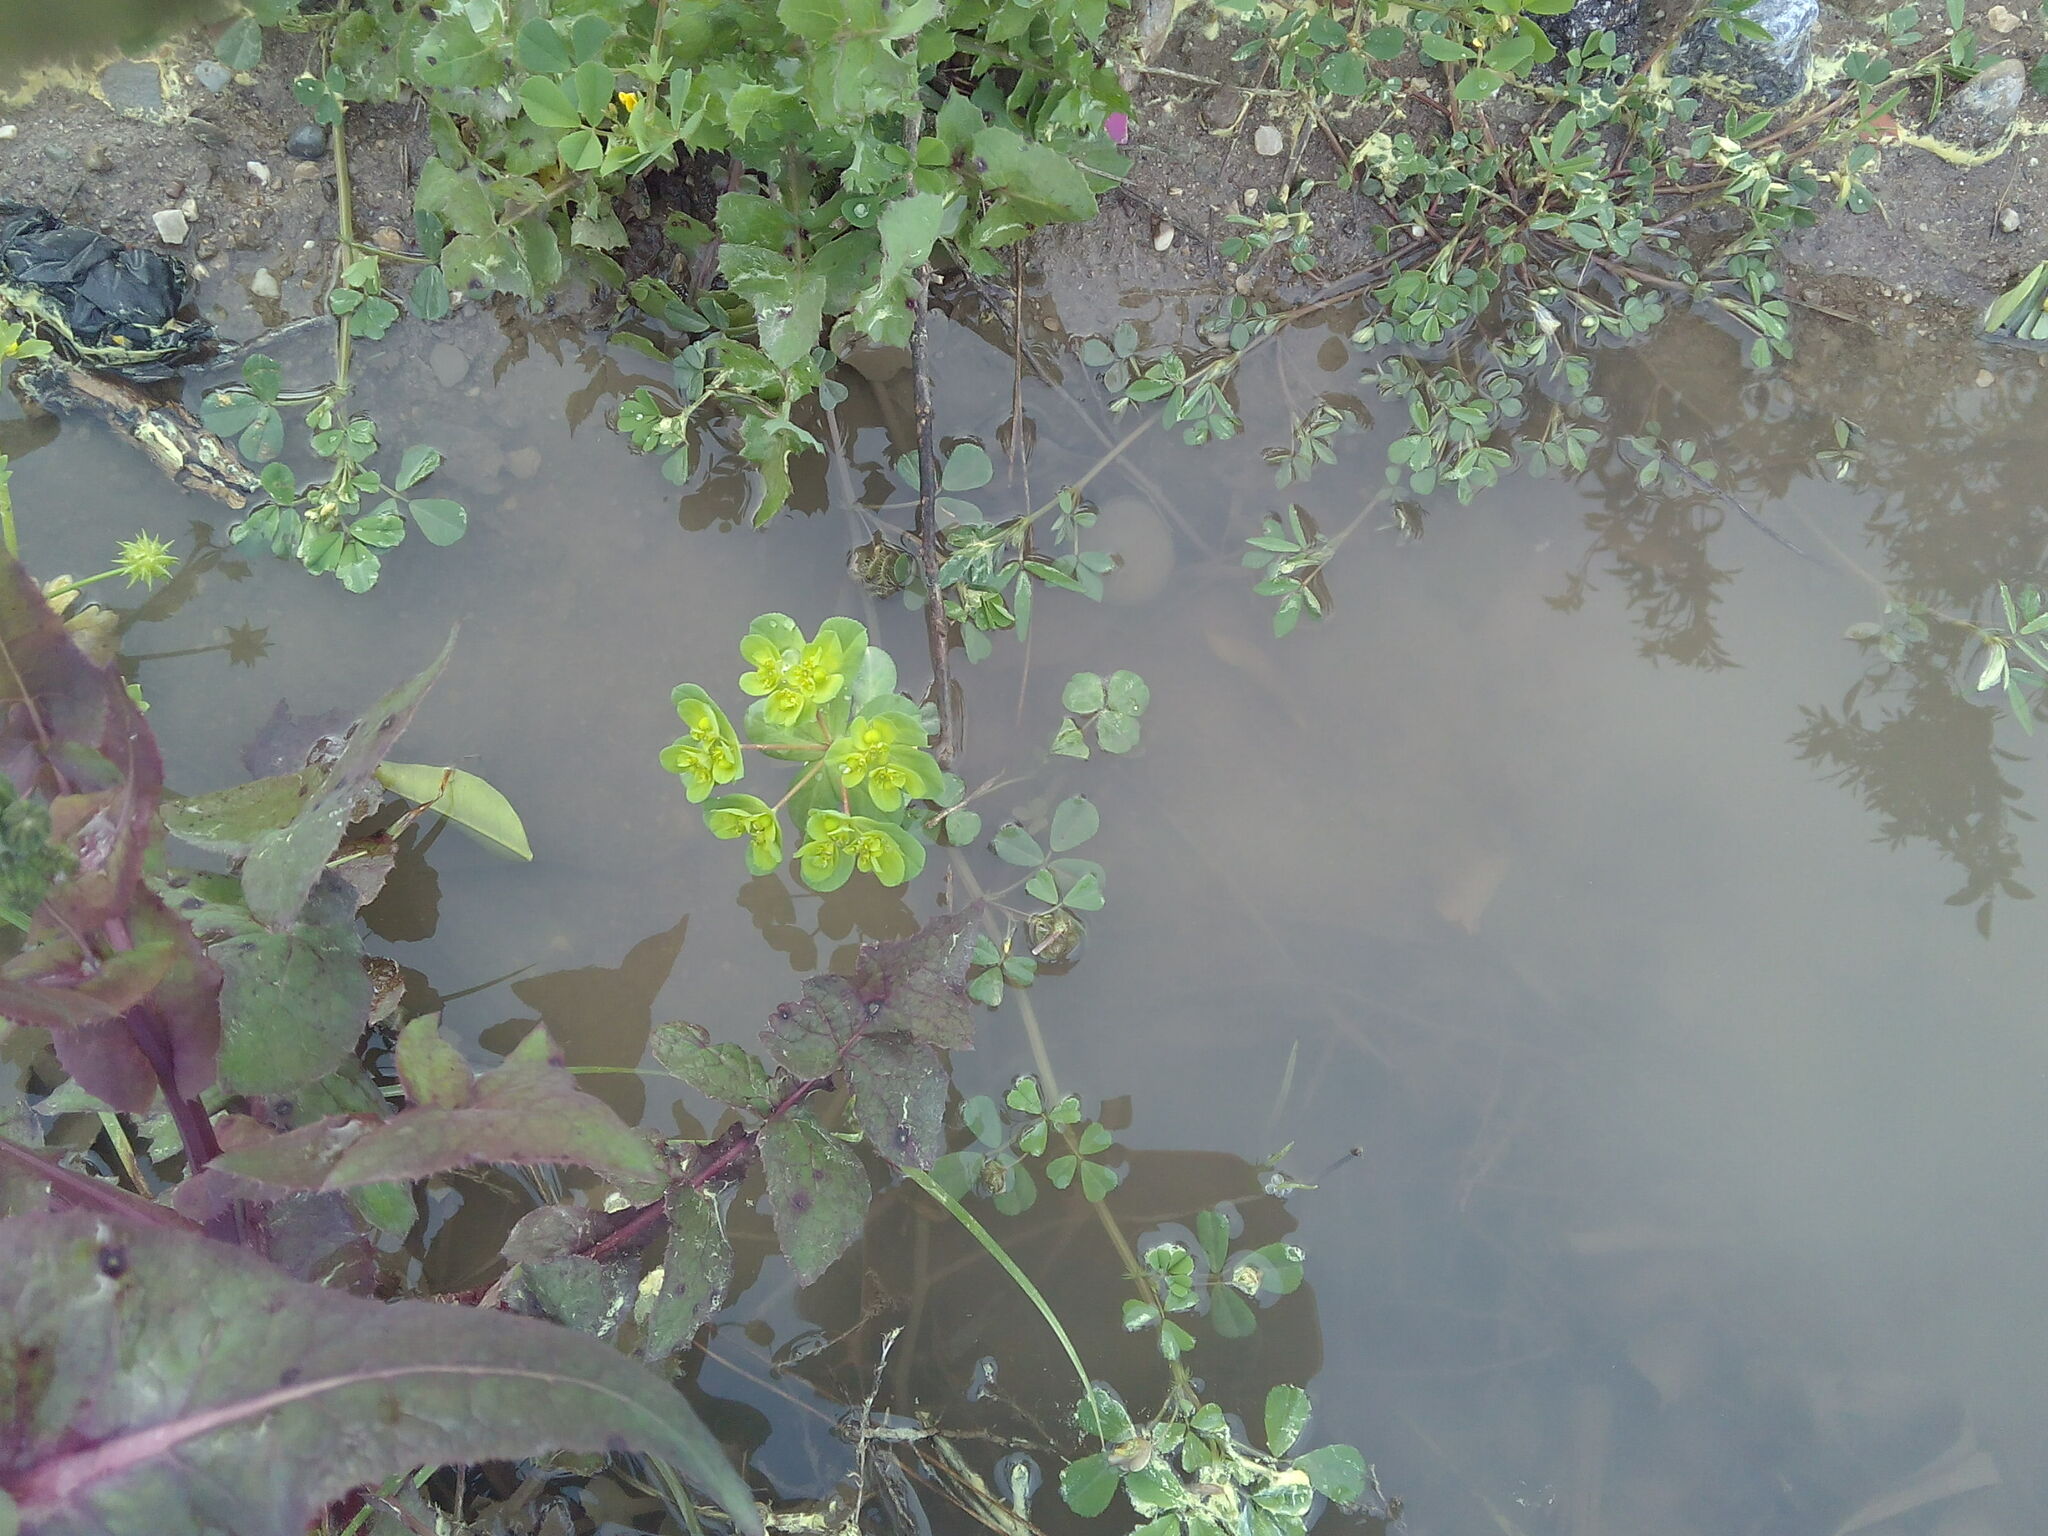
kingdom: Plantae
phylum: Tracheophyta
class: Magnoliopsida
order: Malpighiales
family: Euphorbiaceae
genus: Euphorbia
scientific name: Euphorbia helioscopia
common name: Sun spurge
